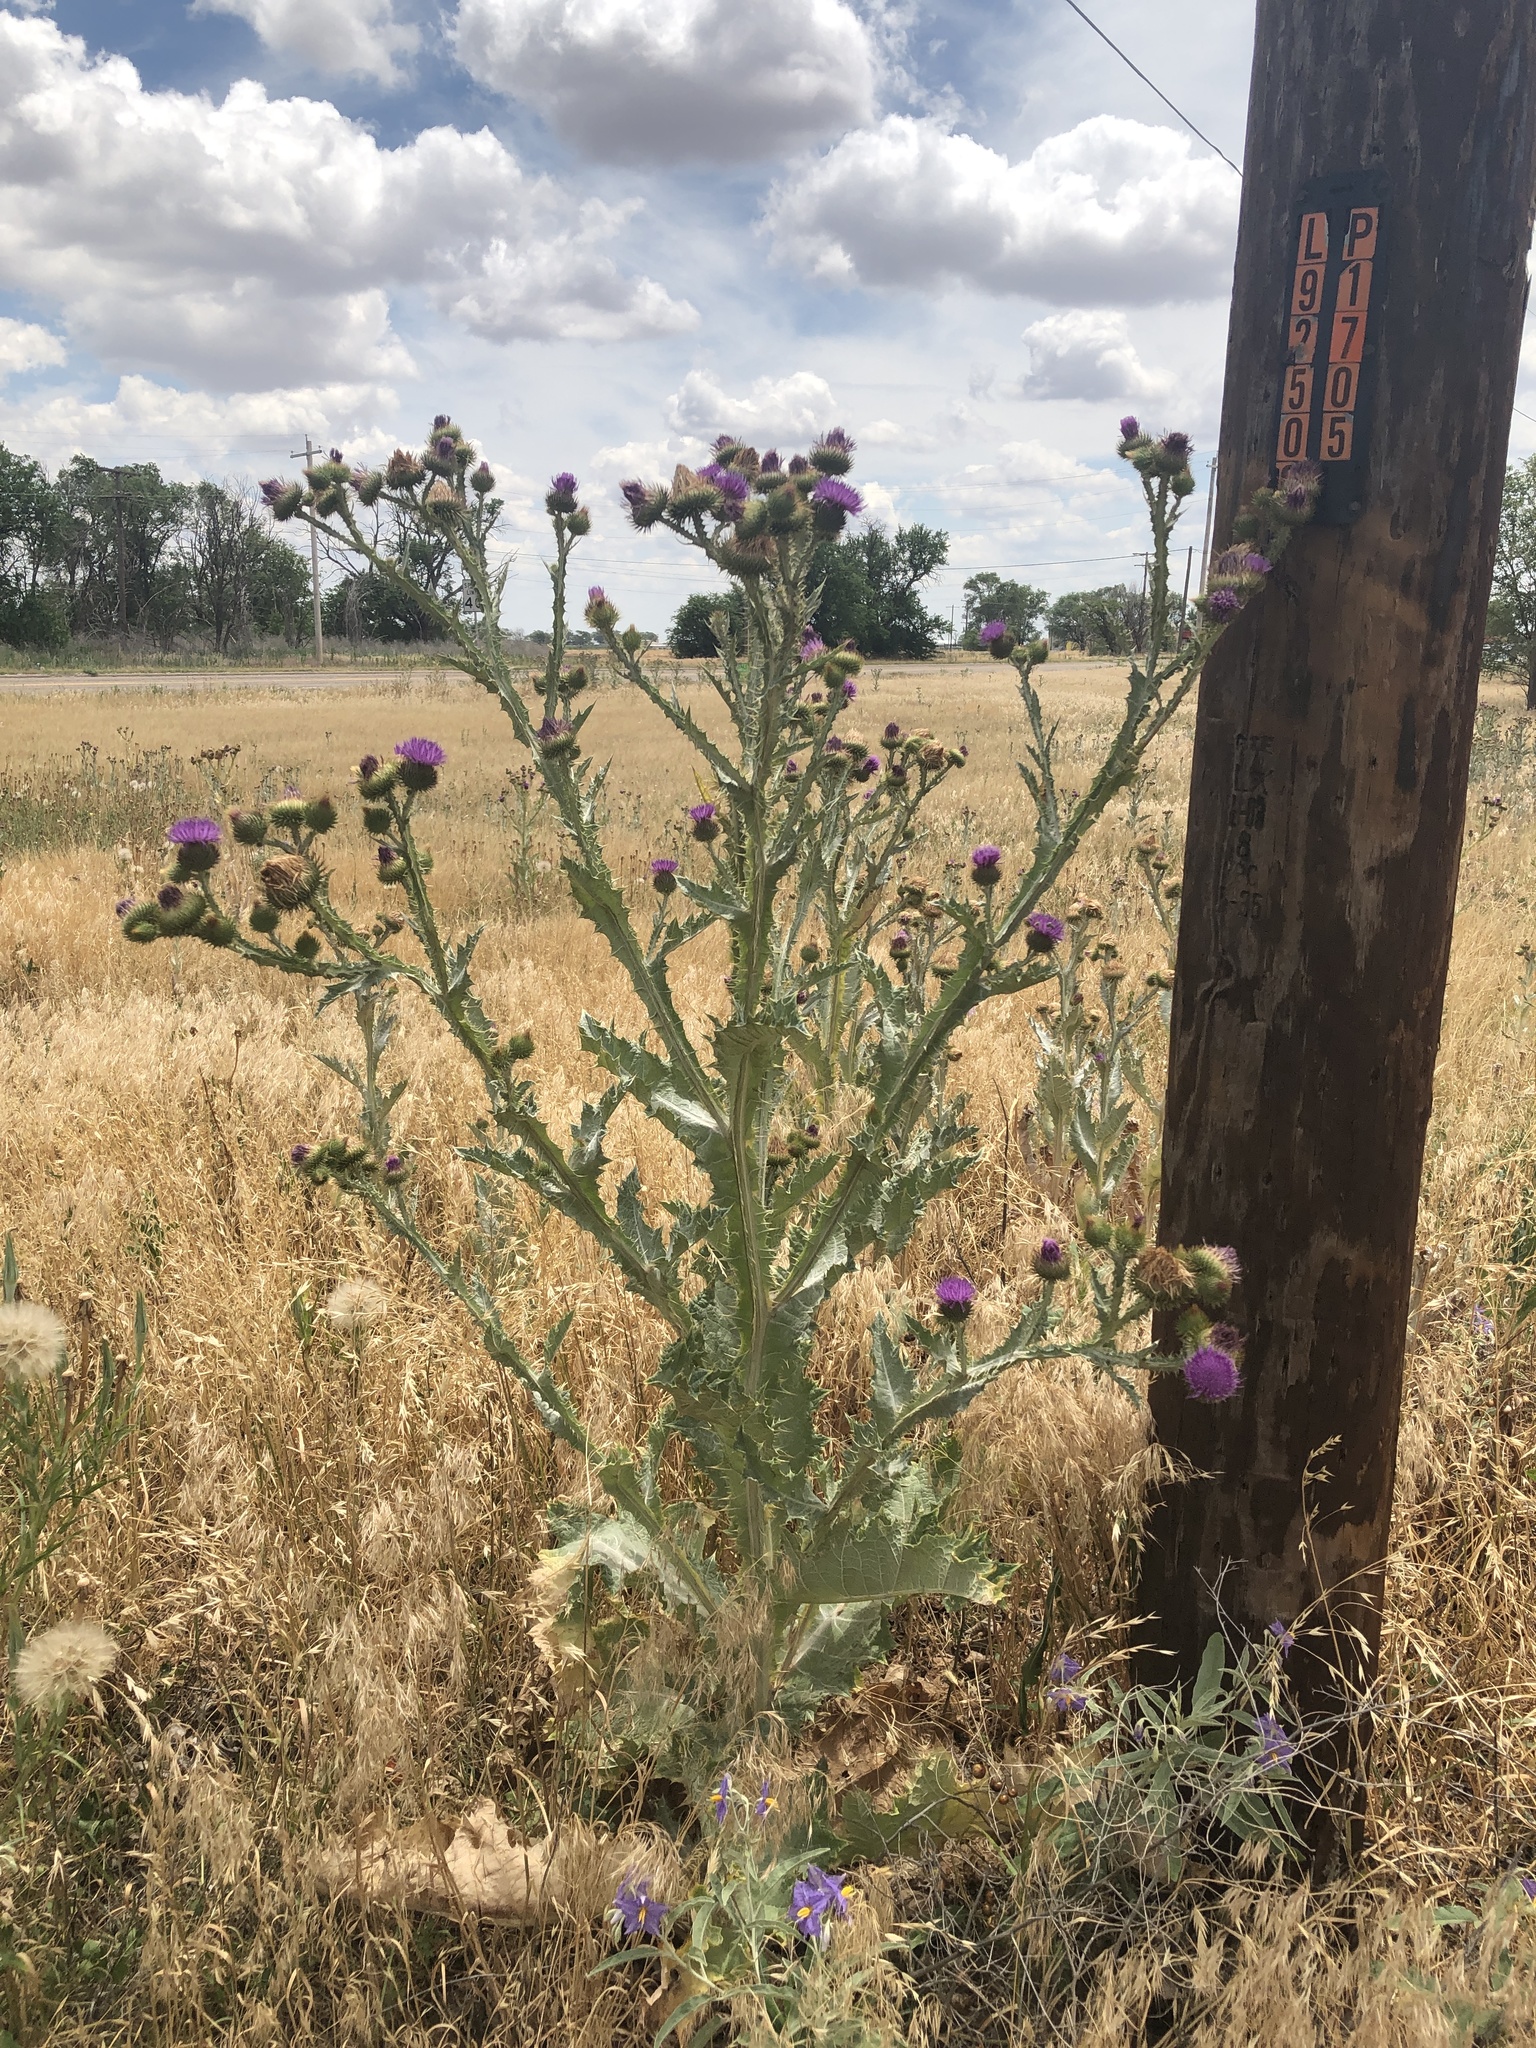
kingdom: Plantae
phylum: Tracheophyta
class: Magnoliopsida
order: Asterales
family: Asteraceae
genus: Onopordum
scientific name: Onopordum acanthium
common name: Scotch thistle
